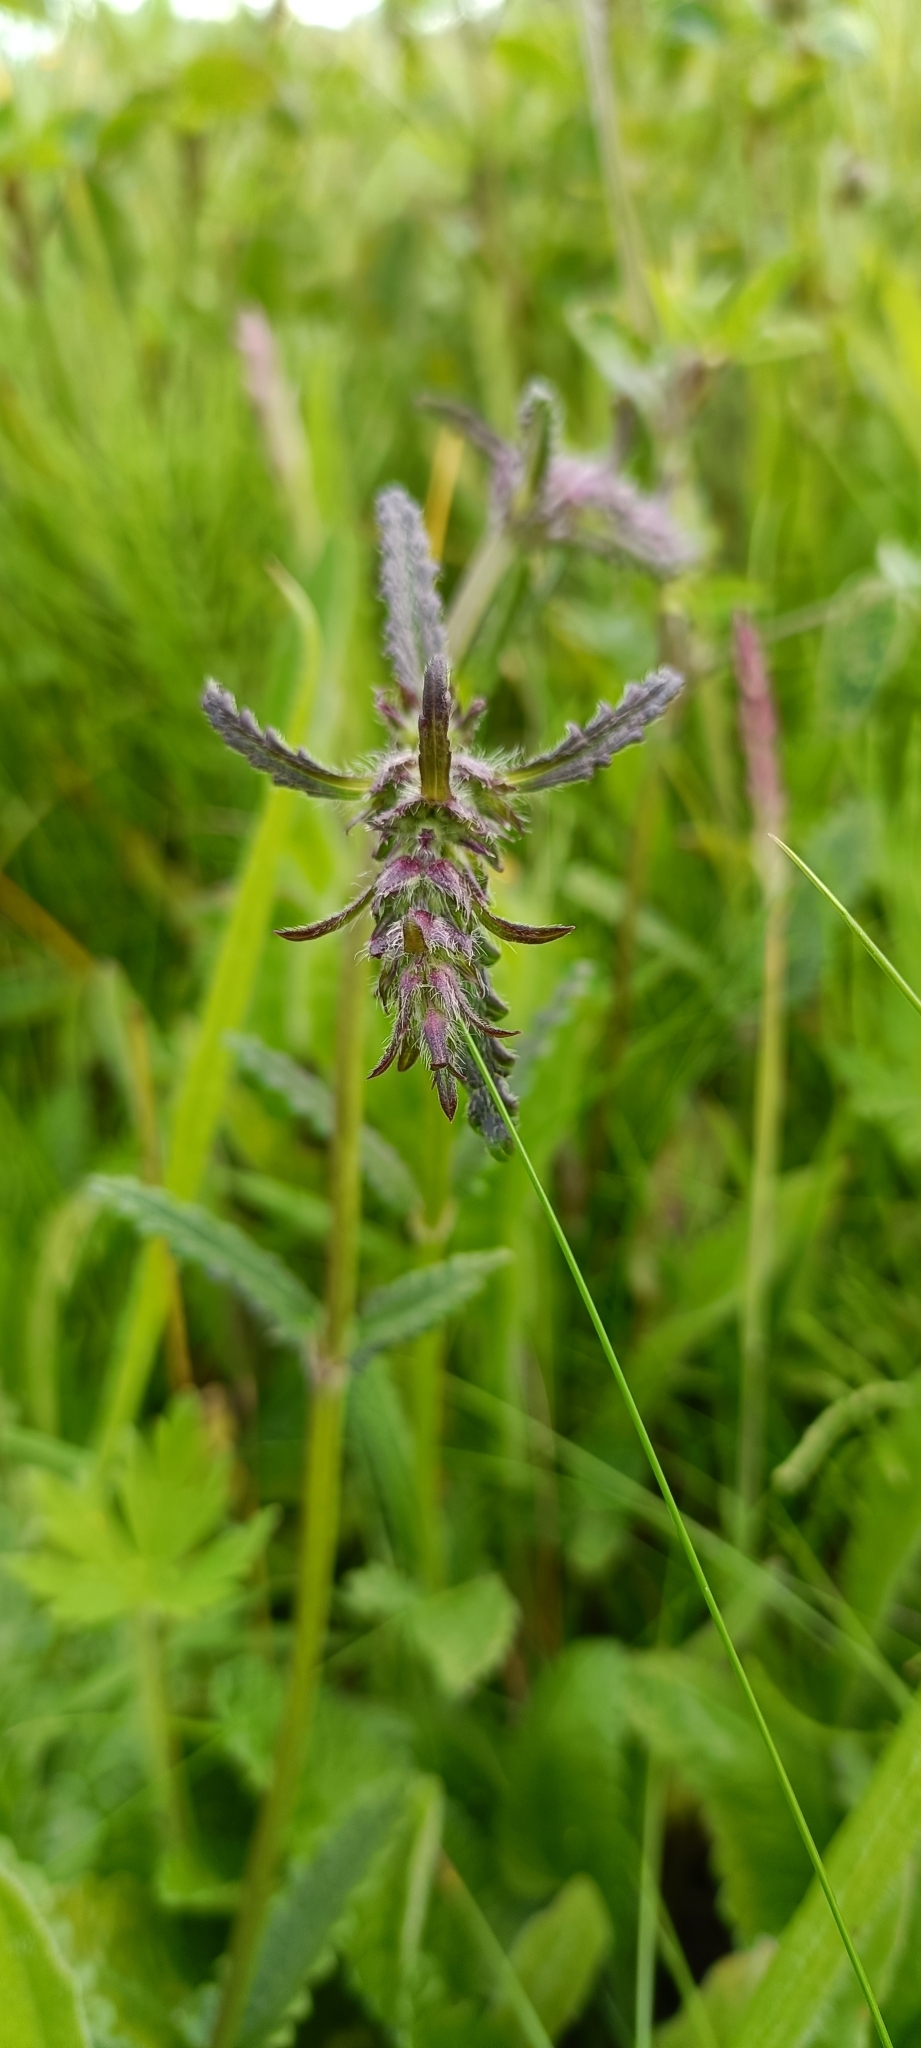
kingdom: Plantae
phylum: Tracheophyta
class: Magnoliopsida
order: Lamiales
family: Lamiaceae
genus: Betonica
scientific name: Betonica officinalis
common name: Bishop's-wort
